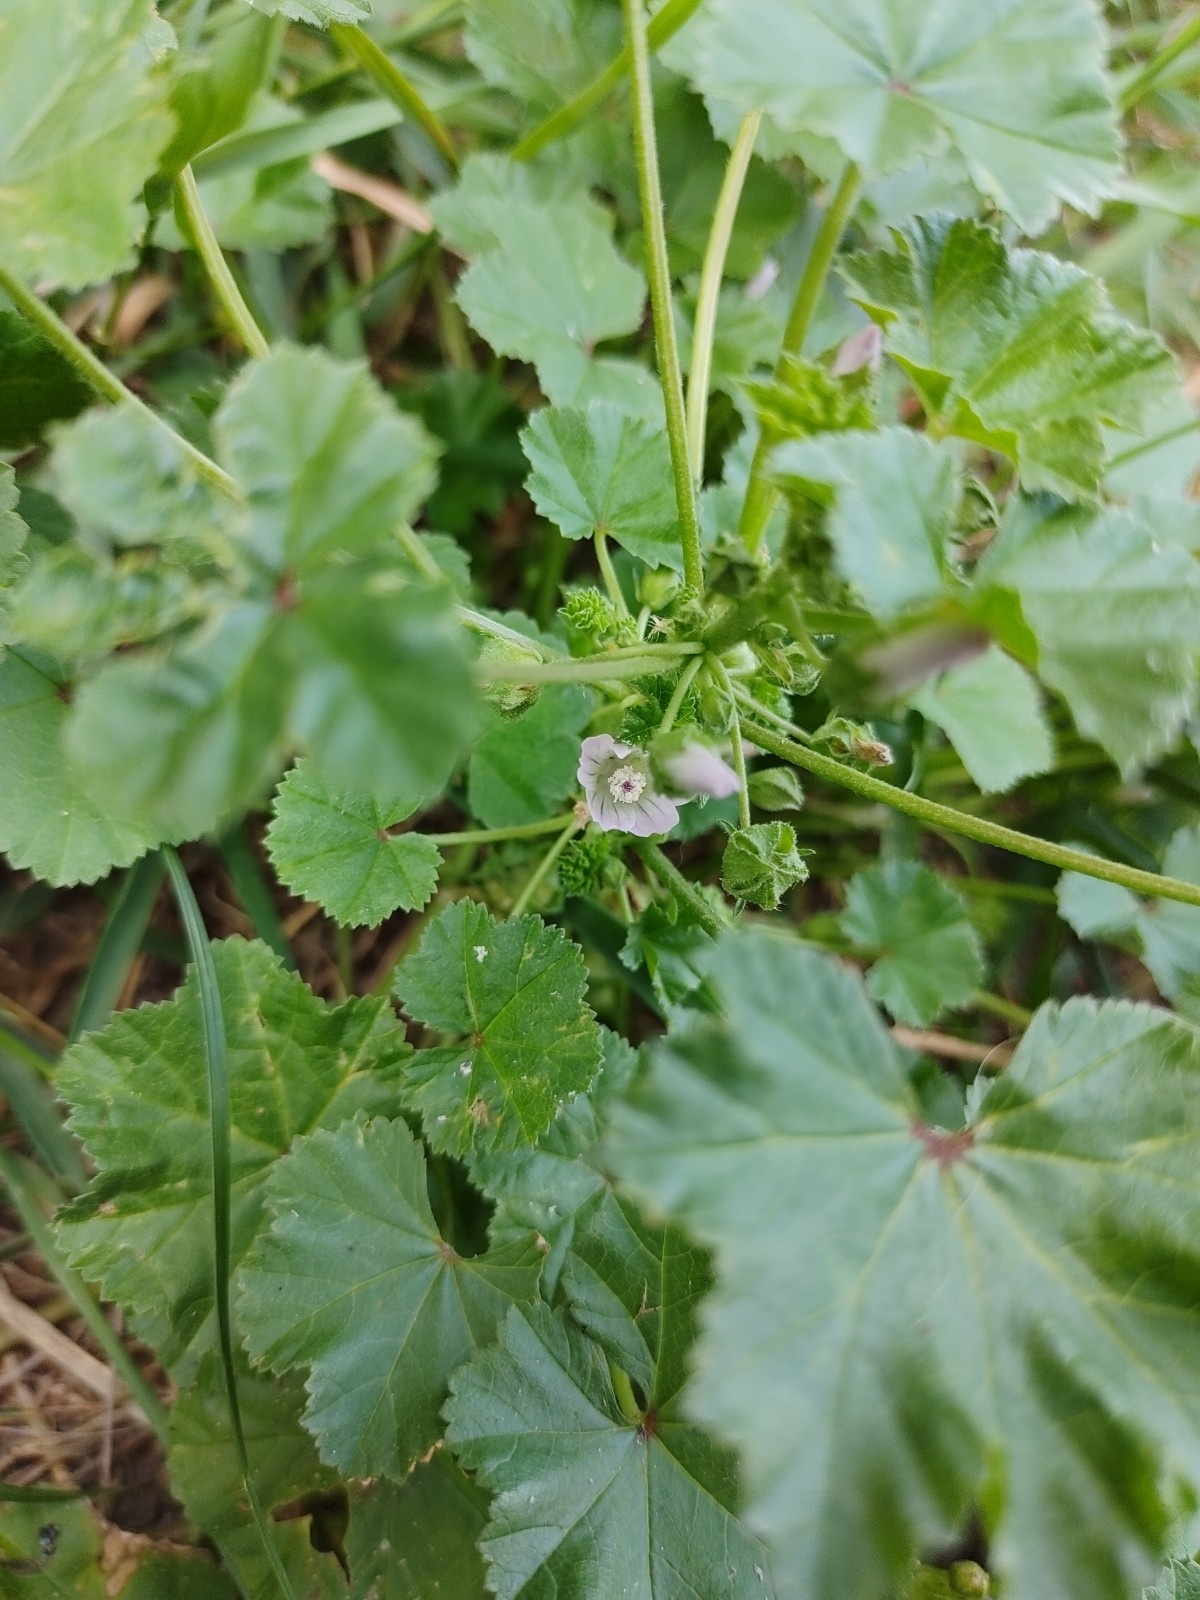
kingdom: Plantae
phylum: Tracheophyta
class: Magnoliopsida
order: Malvales
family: Malvaceae
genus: Malva
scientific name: Malva neglecta
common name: Common mallow
